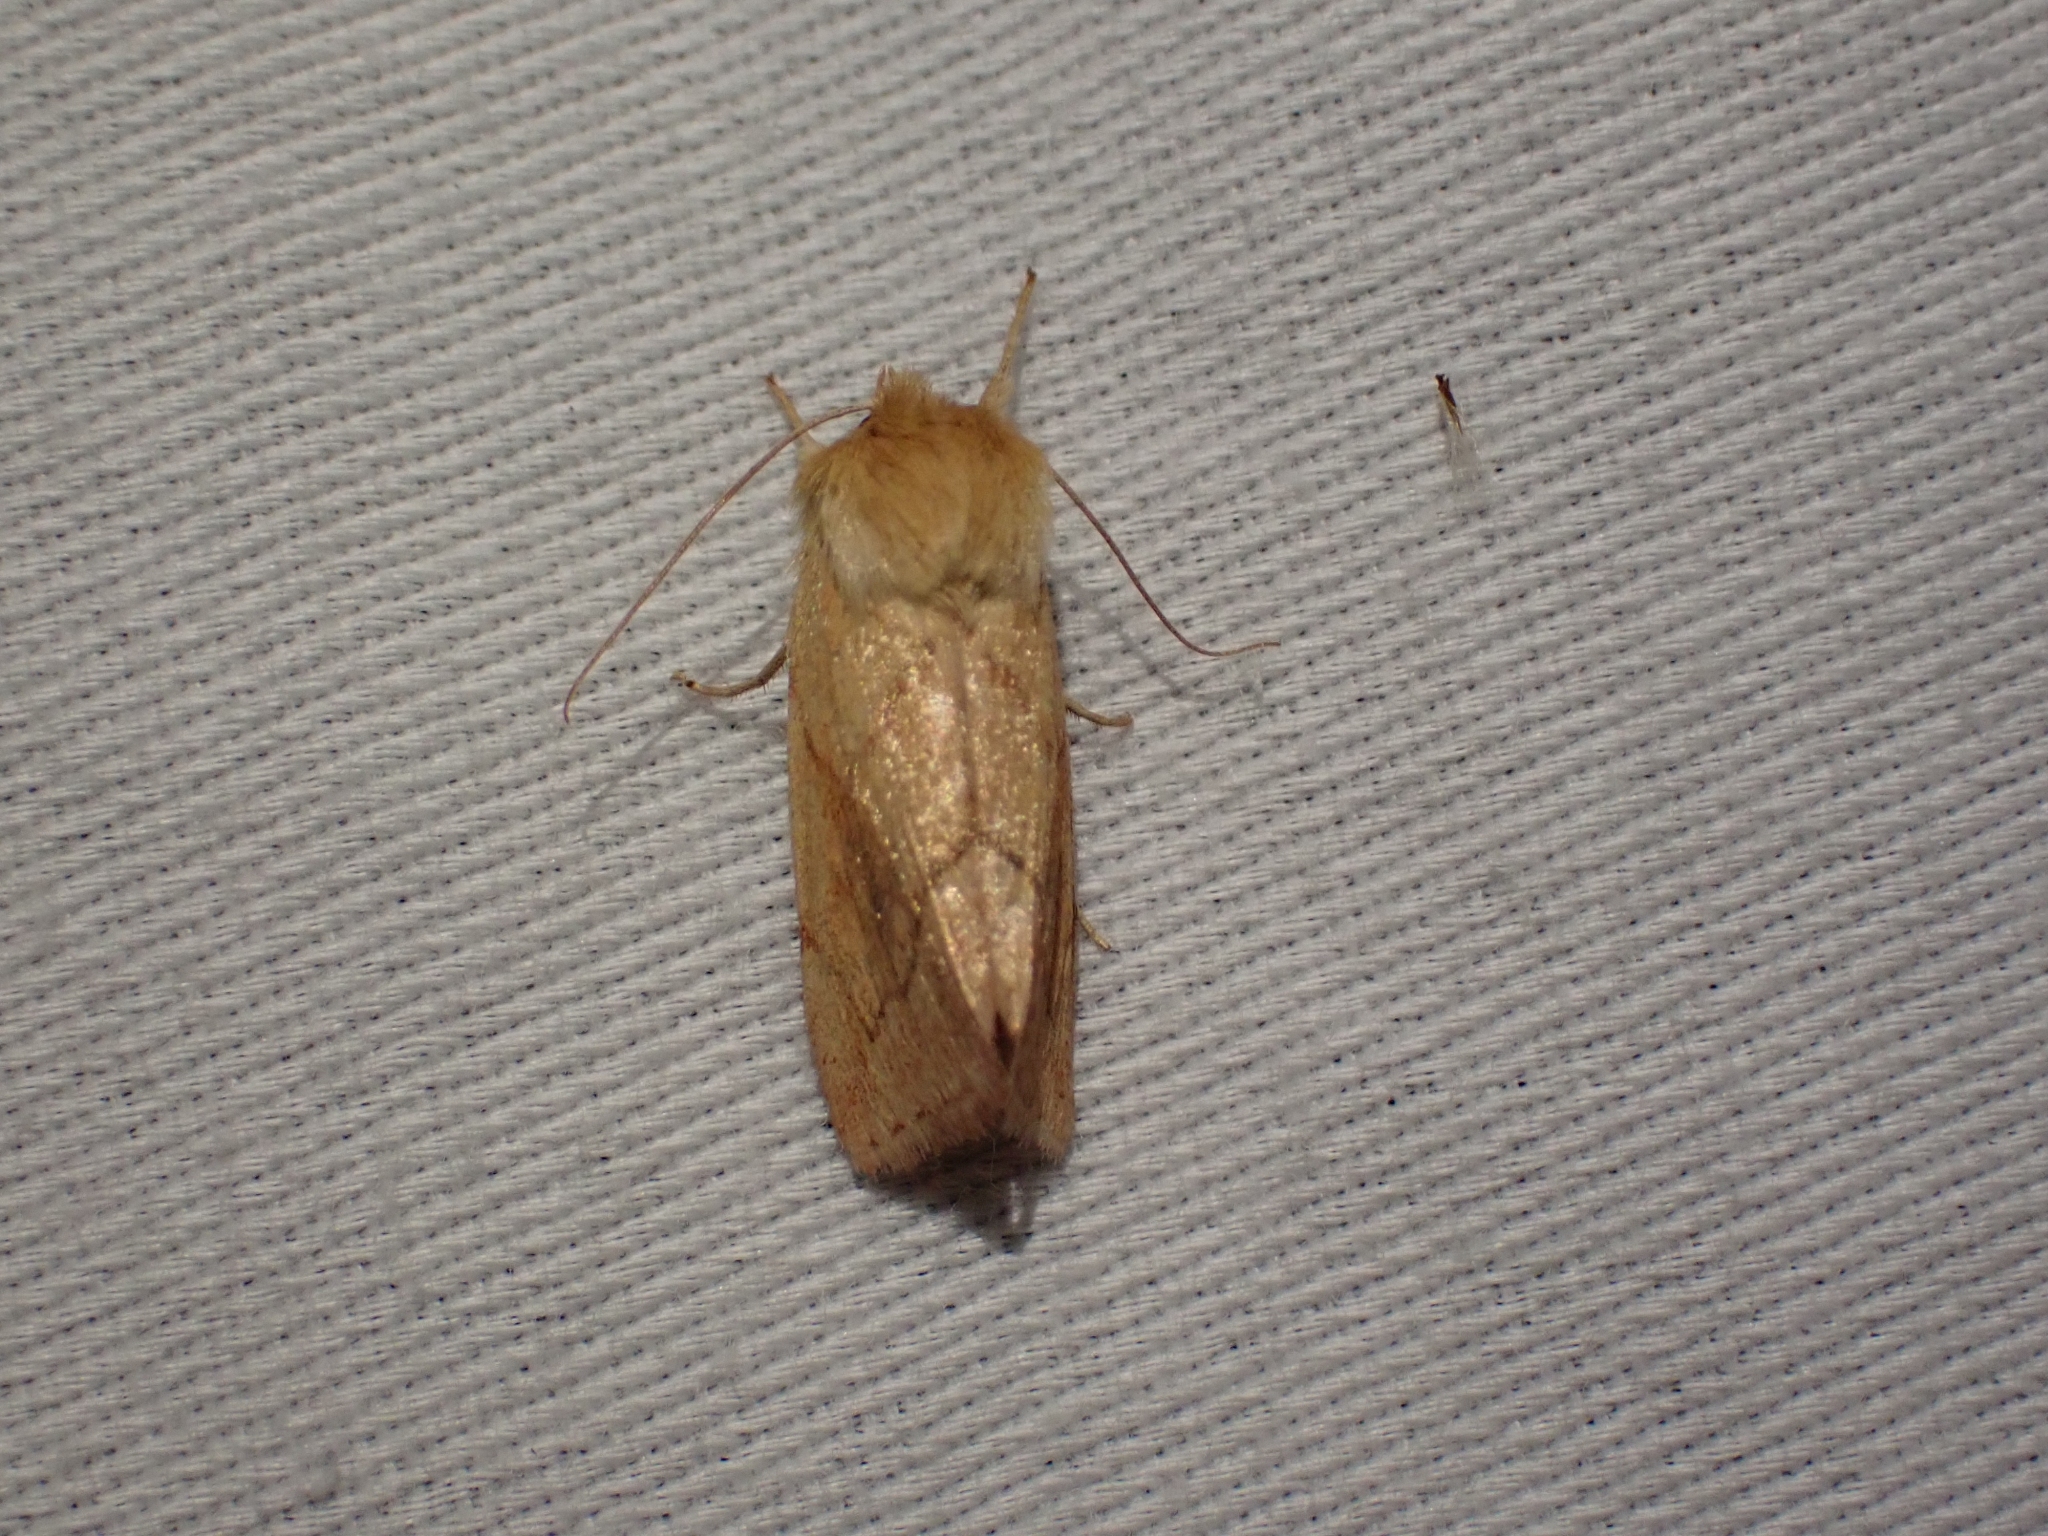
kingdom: Animalia
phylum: Arthropoda
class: Insecta
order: Lepidoptera
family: Noctuidae
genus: Zosteropoda
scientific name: Zosteropoda hirtipes
